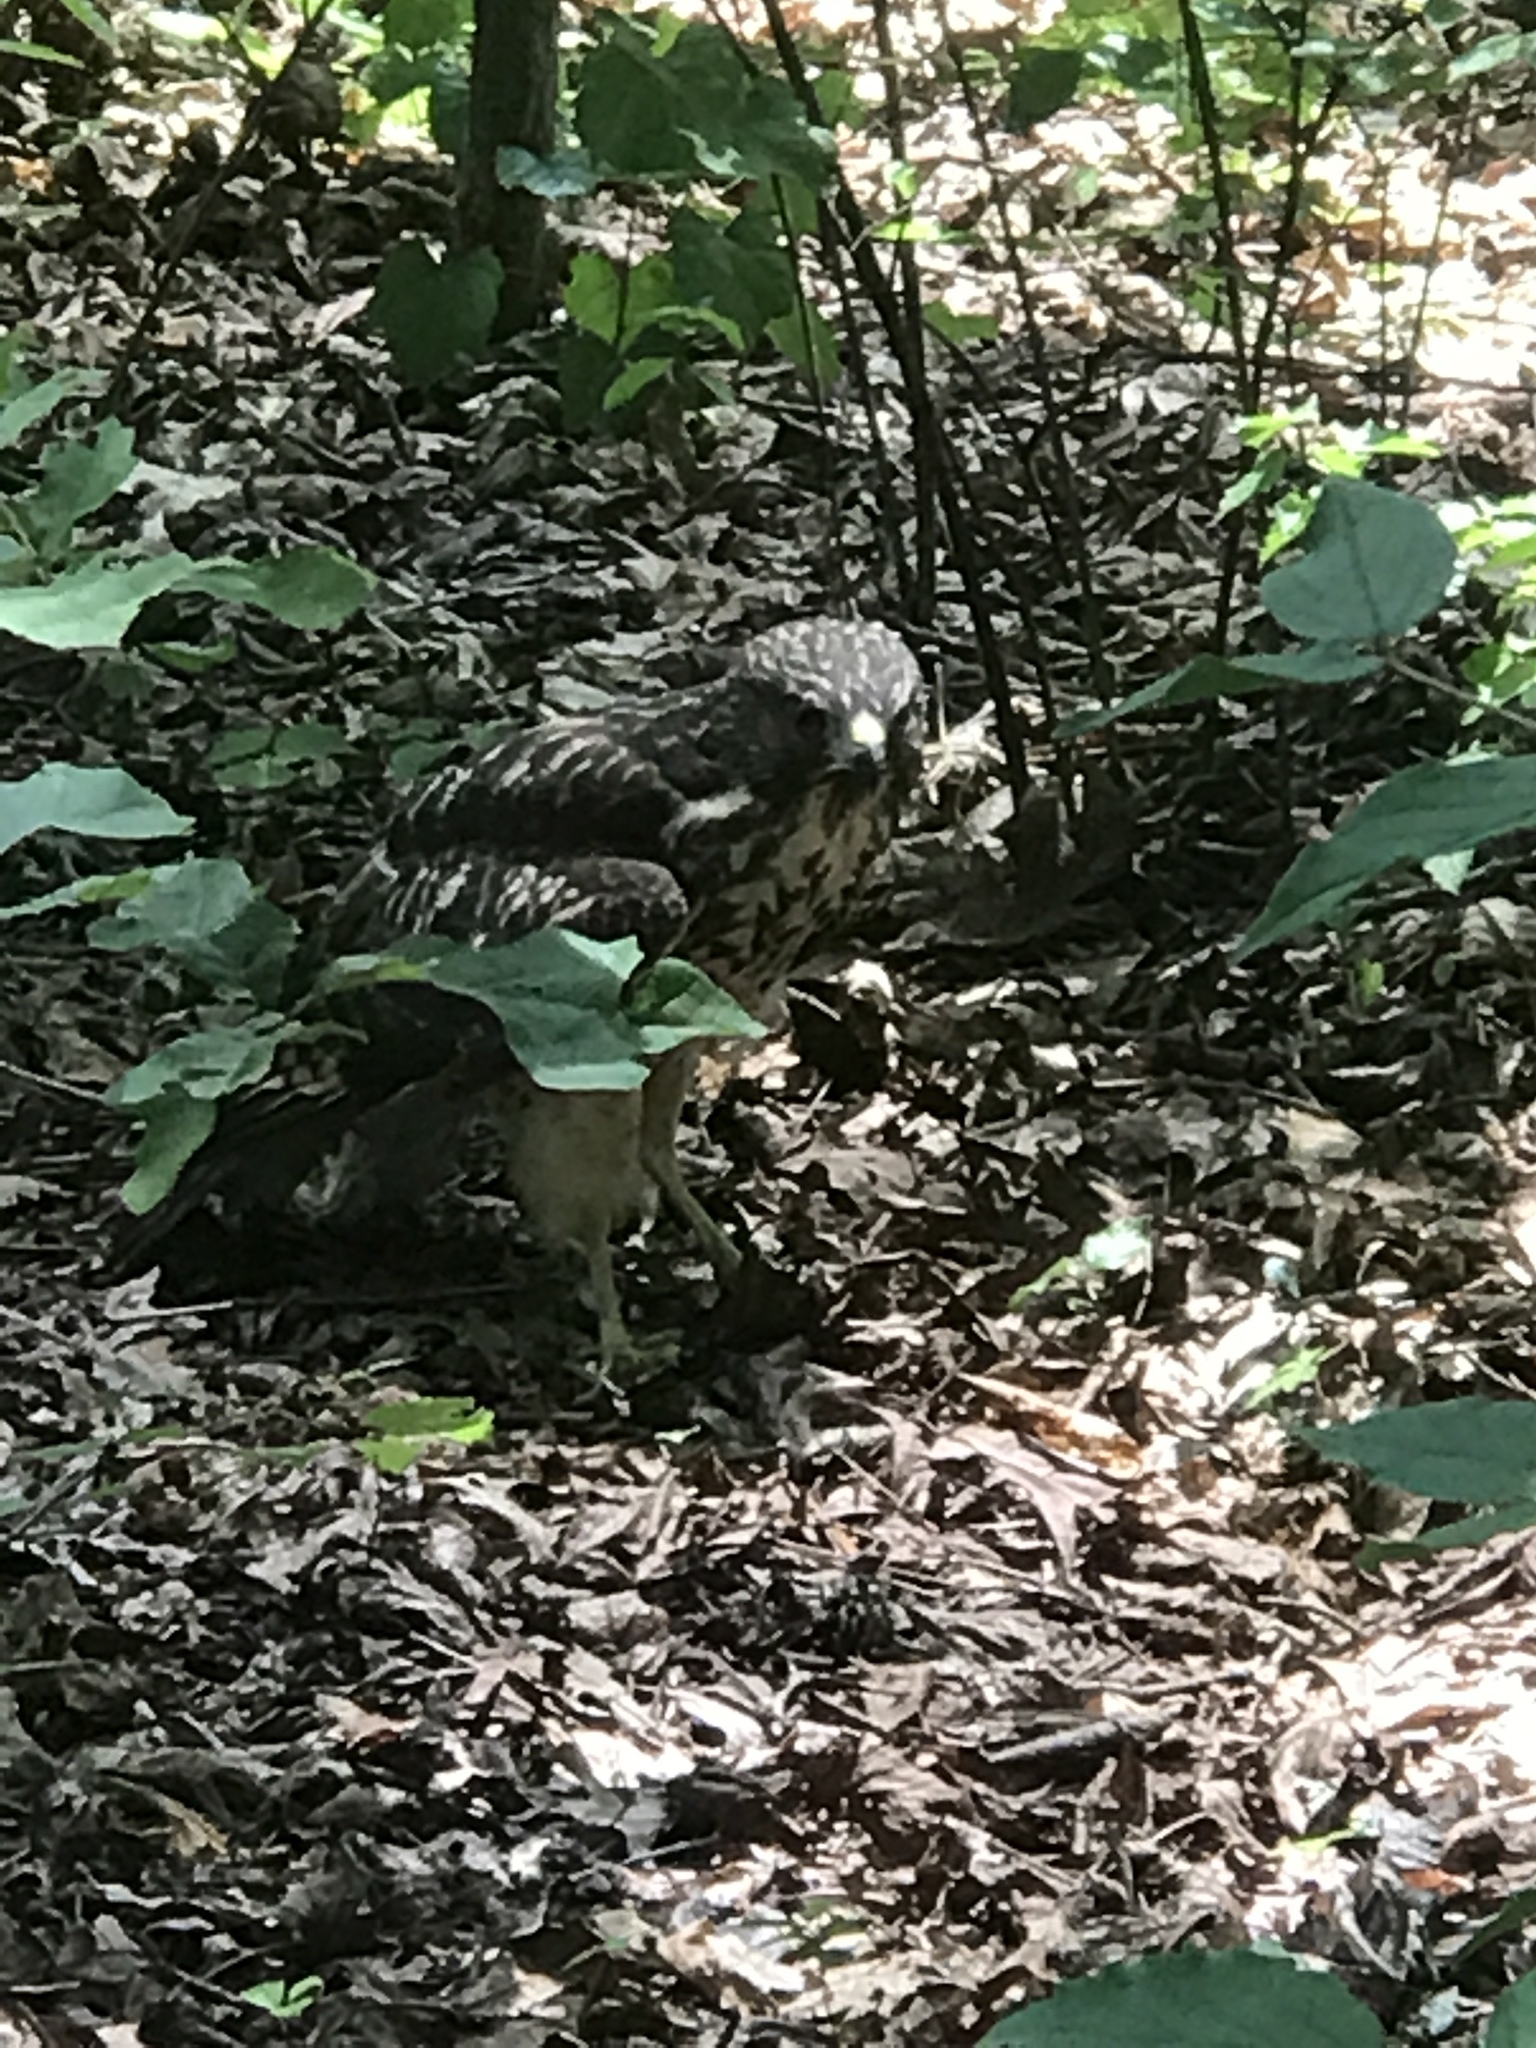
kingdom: Animalia
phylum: Chordata
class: Aves
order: Accipitriformes
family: Accipitridae
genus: Buteo
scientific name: Buteo lineatus
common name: Red-shouldered hawk
